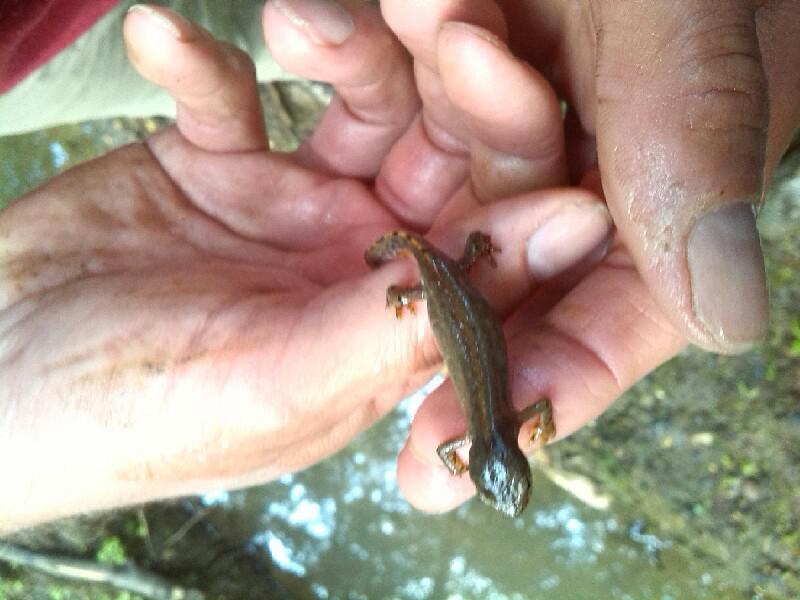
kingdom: Animalia
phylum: Chordata
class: Amphibia
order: Caudata
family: Salamandridae
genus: Ichthyosaura
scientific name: Ichthyosaura alpestris
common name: Alpine newt
